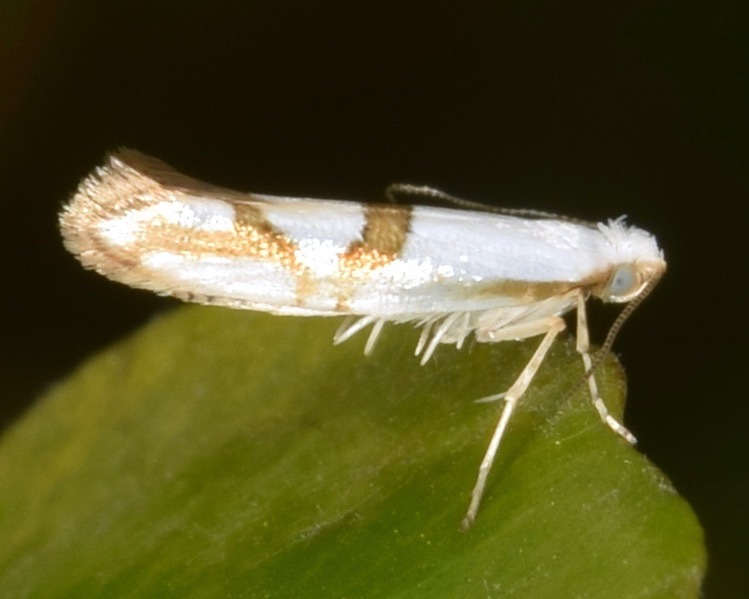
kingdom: Animalia
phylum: Arthropoda
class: Insecta
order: Lepidoptera
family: Argyresthiidae
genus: Argyresthia
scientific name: Argyresthia oreasella
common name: Cherry shoot borer moth
